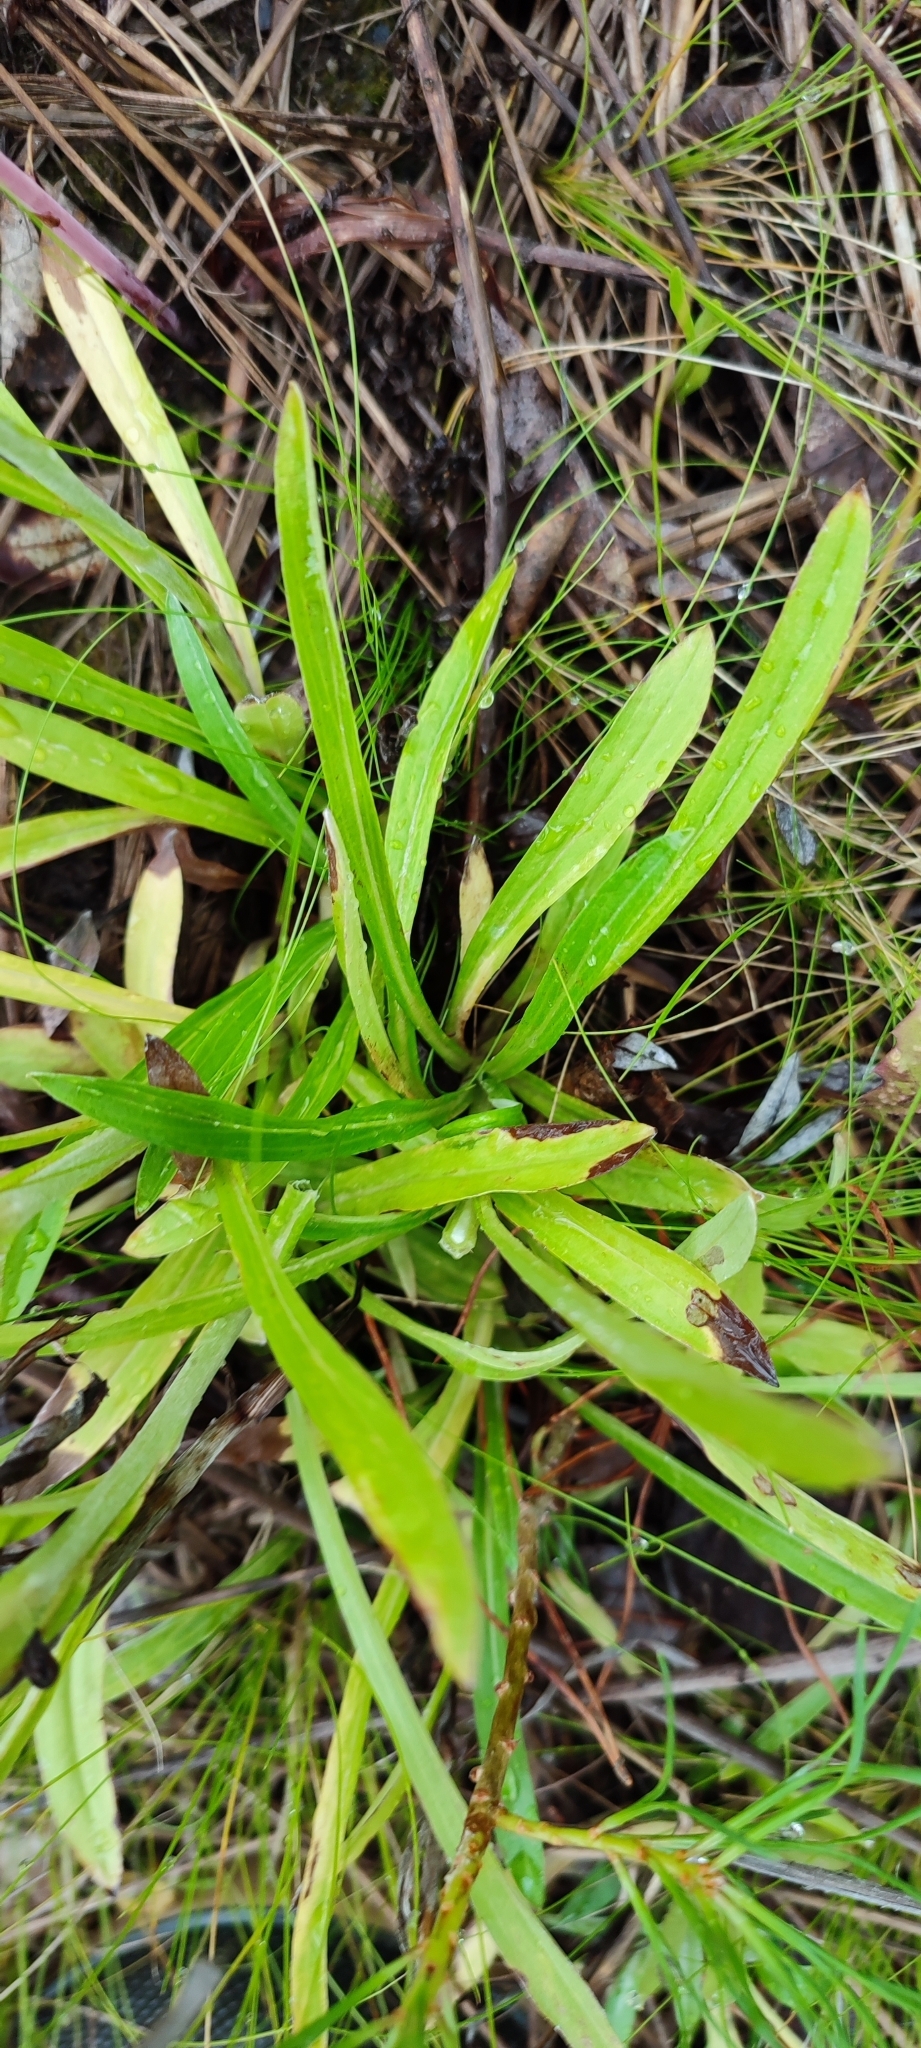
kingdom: Plantae
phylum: Tracheophyta
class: Magnoliopsida
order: Asterales
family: Asteraceae
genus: Omalotheca
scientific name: Omalotheca sylvatica
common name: Heath cudweed
